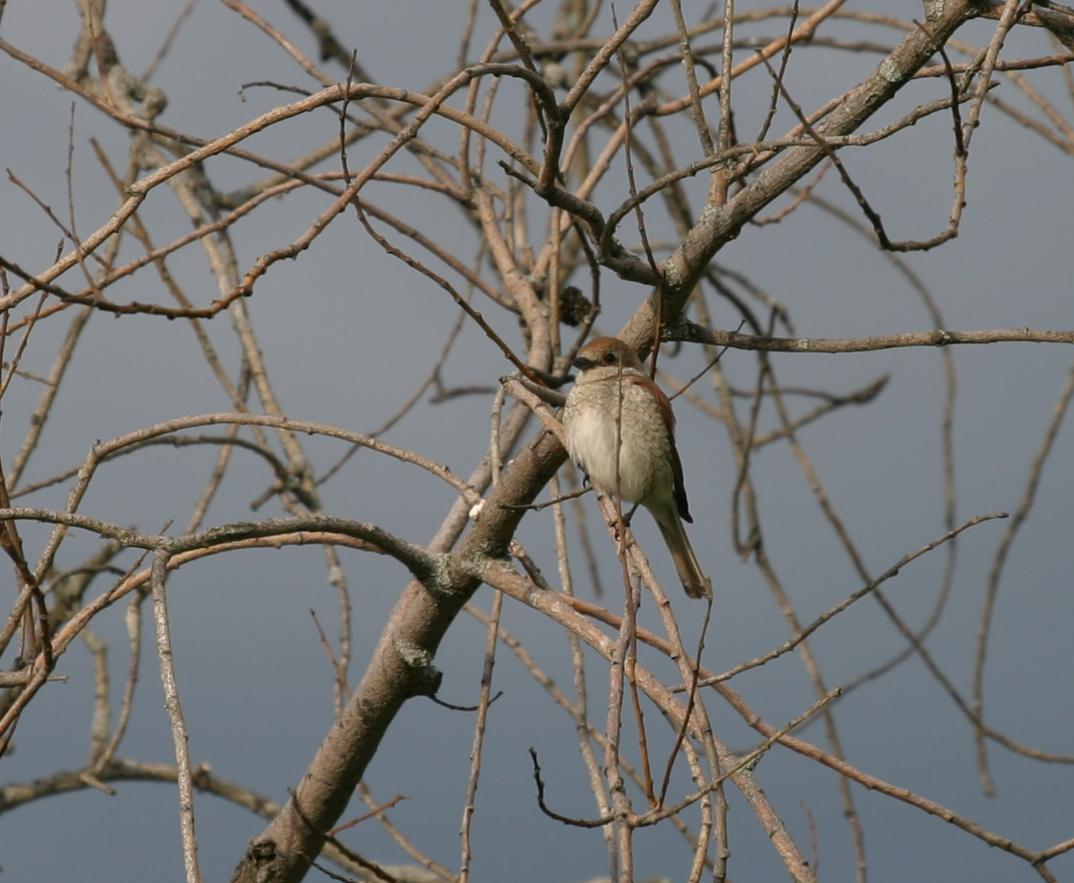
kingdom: Animalia
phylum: Chordata
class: Aves
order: Passeriformes
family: Laniidae
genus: Lanius
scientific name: Lanius collurio
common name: Red-backed shrike
